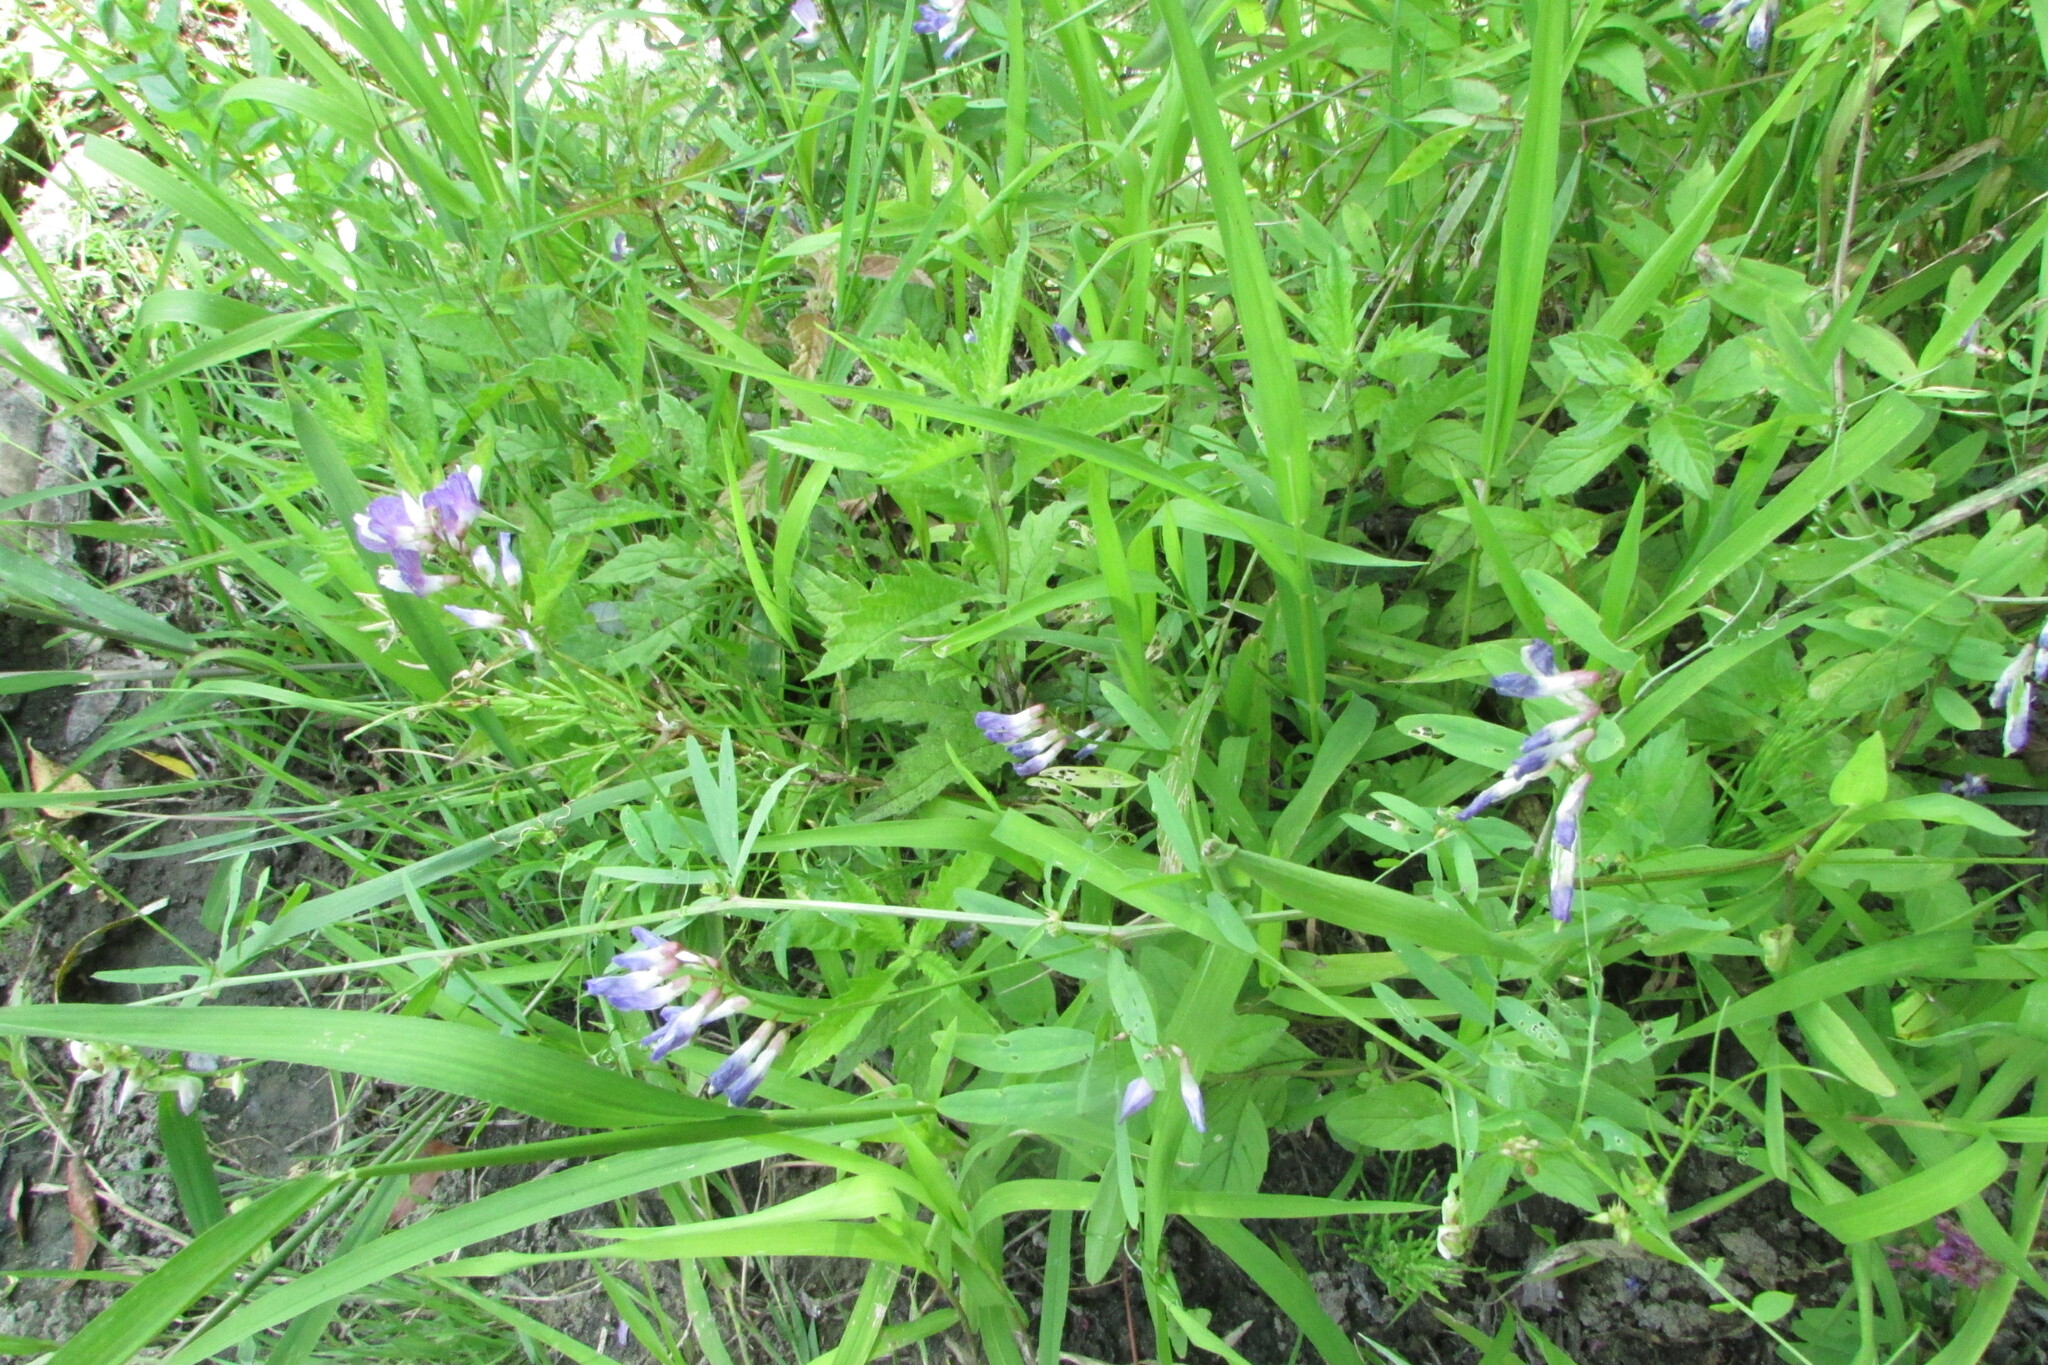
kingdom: Plantae
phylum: Tracheophyta
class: Magnoliopsida
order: Fabales
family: Fabaceae
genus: Vicia
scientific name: Vicia biennis
